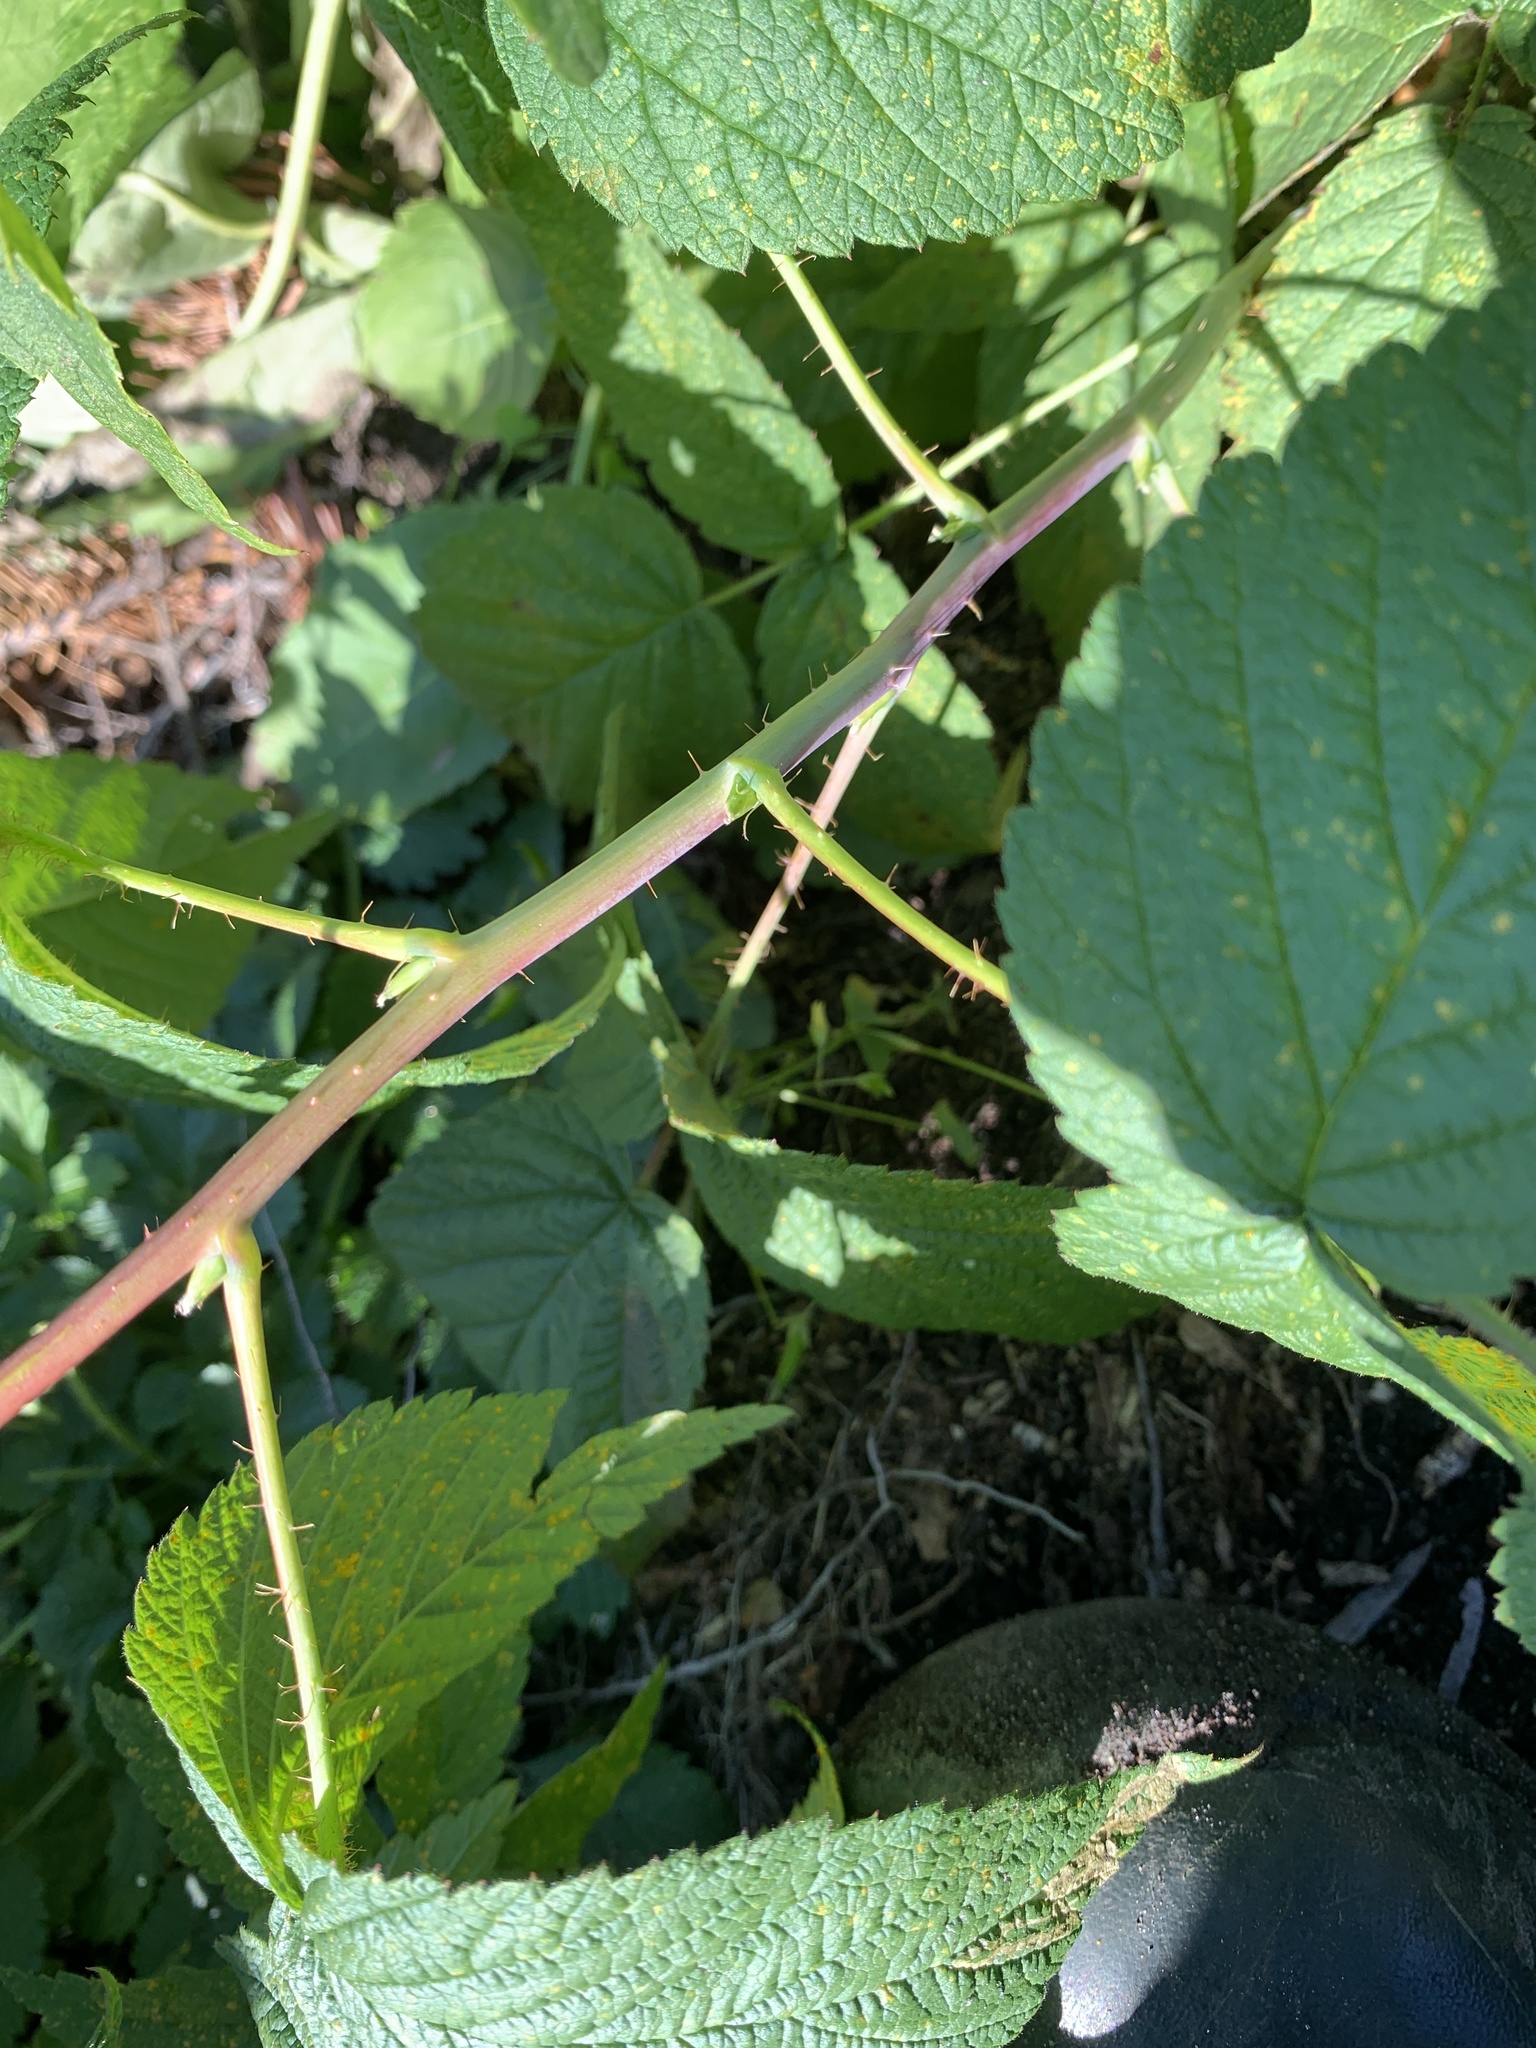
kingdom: Plantae
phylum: Tracheophyta
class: Magnoliopsida
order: Rosales
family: Rosaceae
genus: Rubus
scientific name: Rubus occidentalis
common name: Black raspberry
